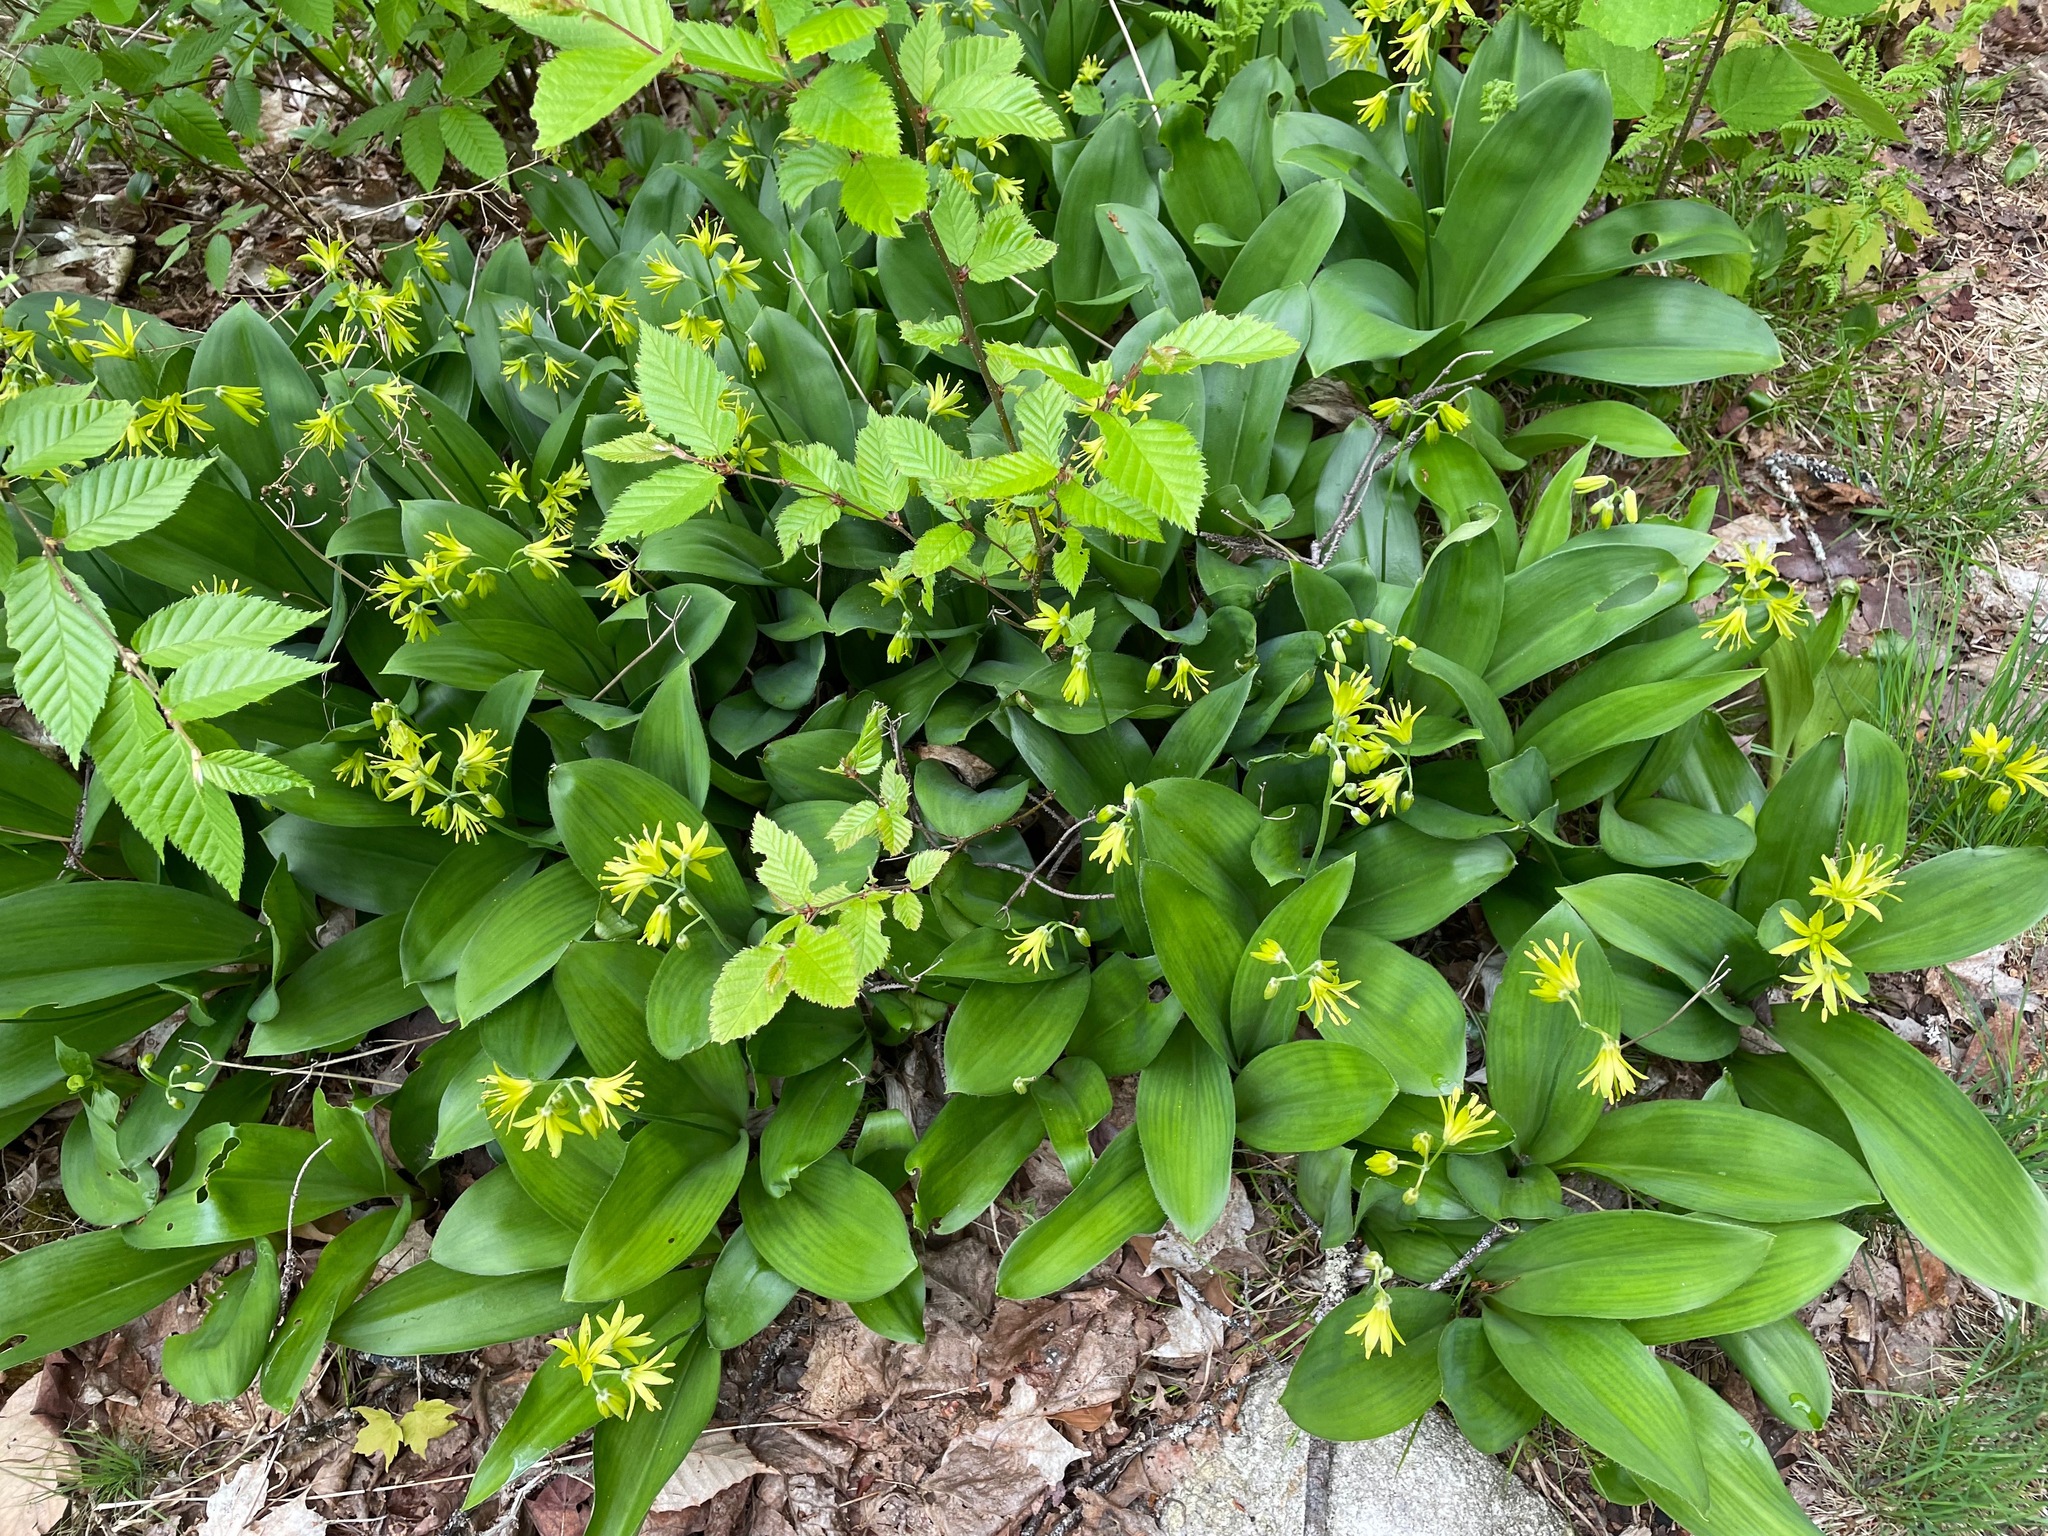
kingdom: Plantae
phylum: Tracheophyta
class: Liliopsida
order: Liliales
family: Liliaceae
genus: Clintonia
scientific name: Clintonia borealis
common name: Yellow clintonia
